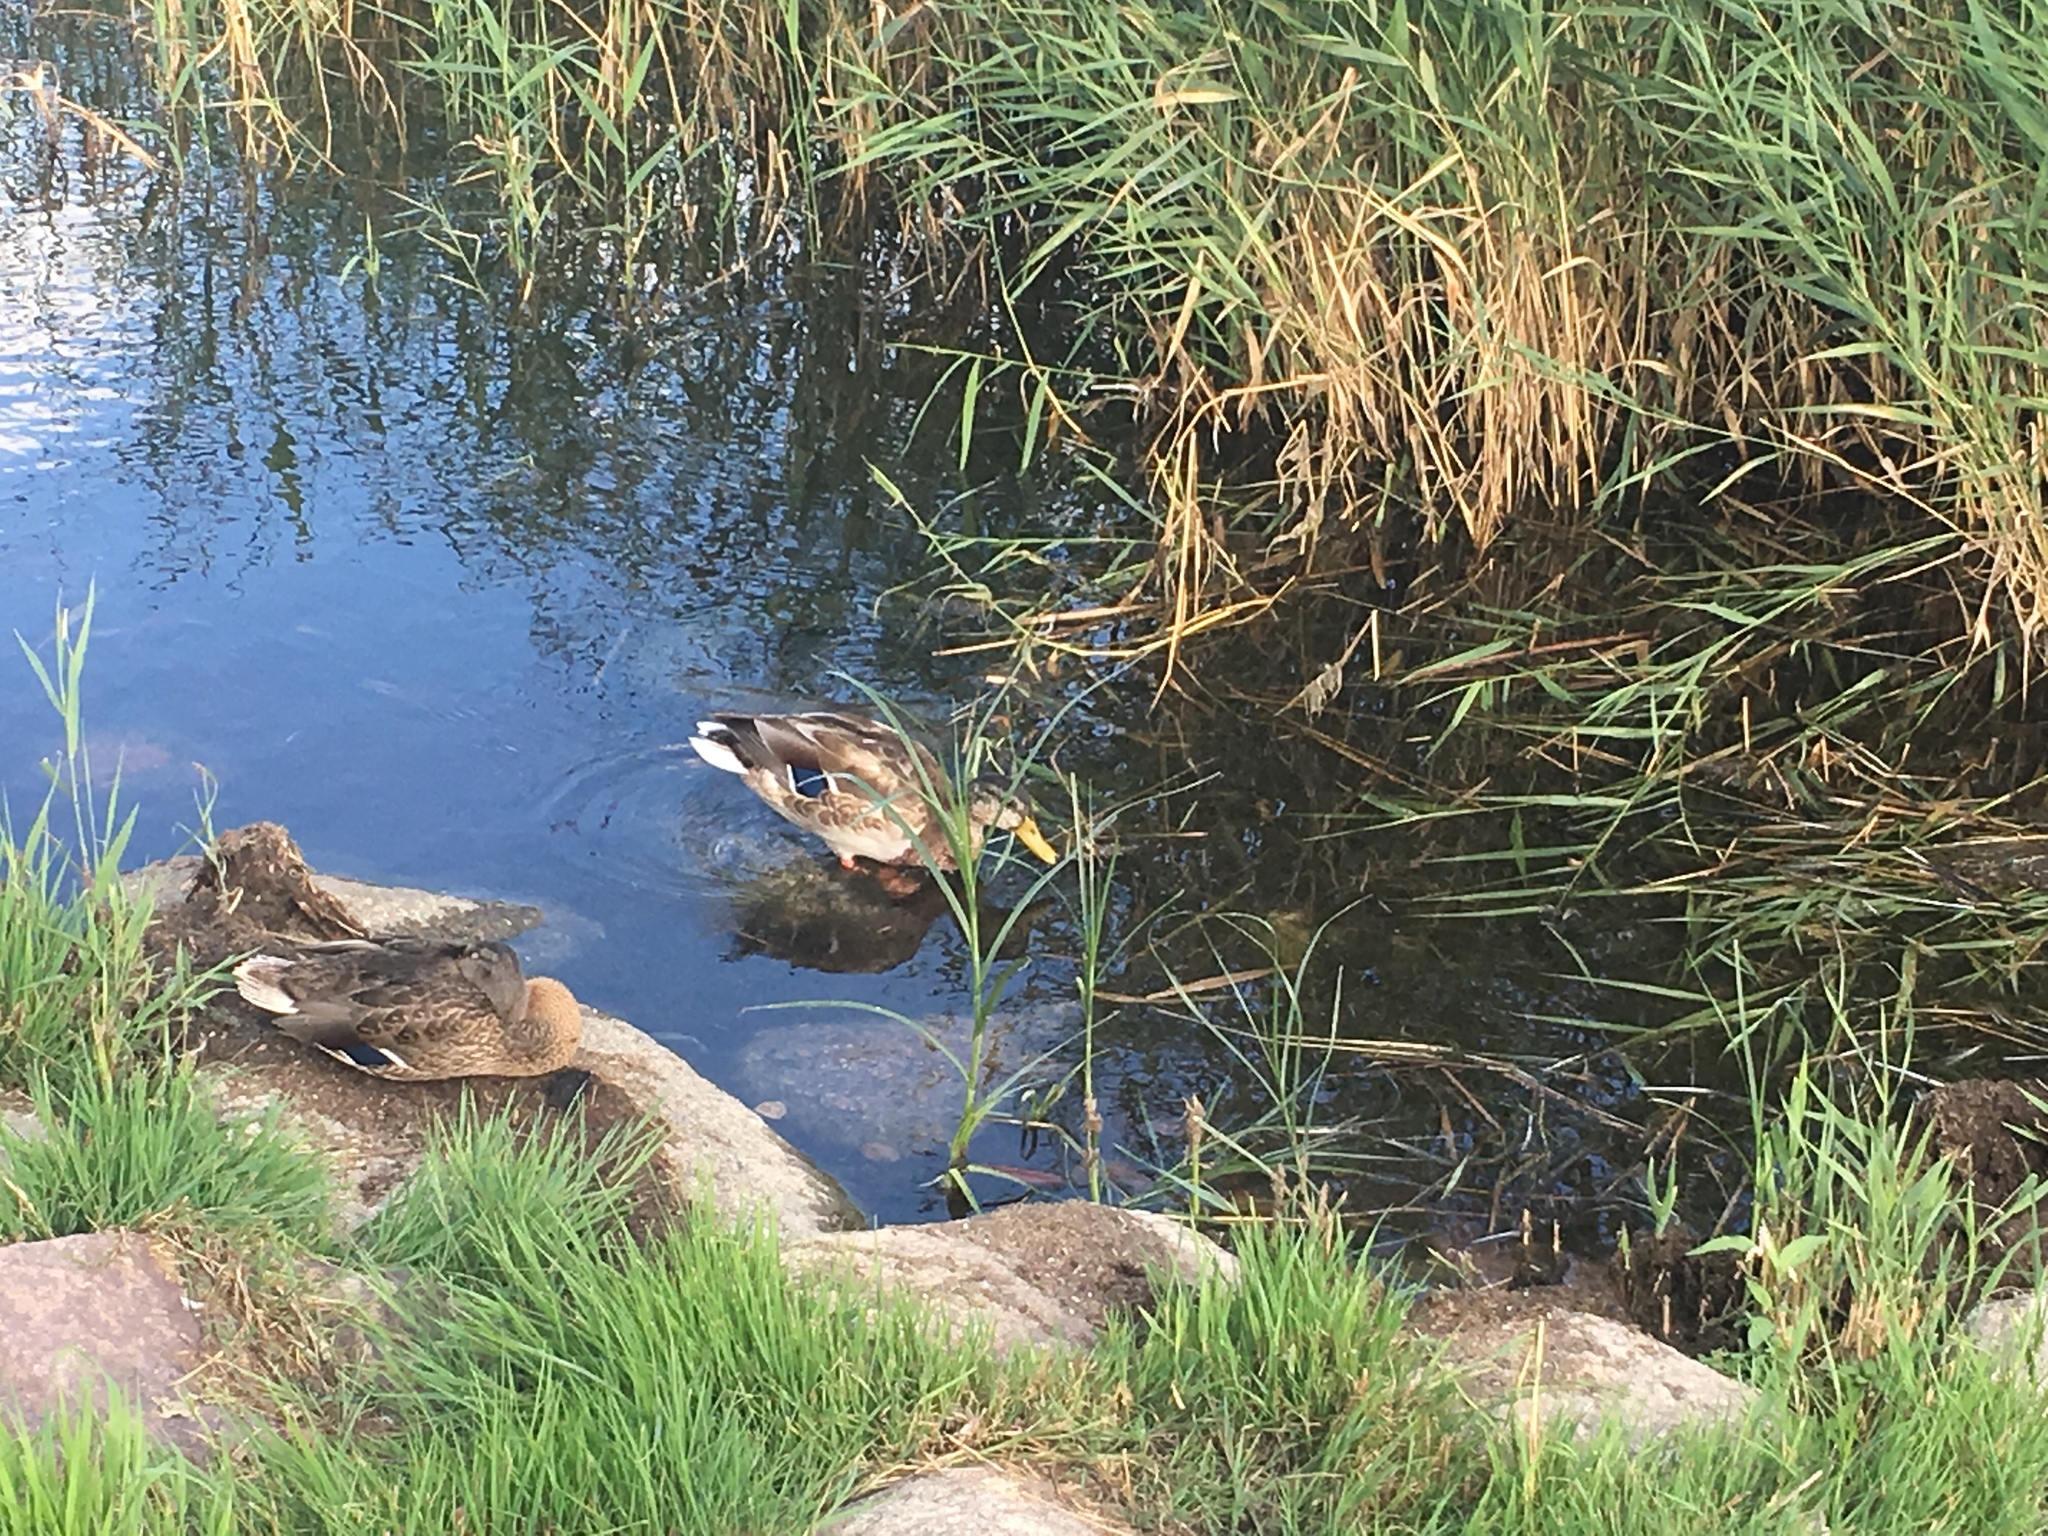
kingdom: Animalia
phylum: Chordata
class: Aves
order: Anseriformes
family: Anatidae
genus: Anas
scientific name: Anas platyrhynchos
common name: Mallard
